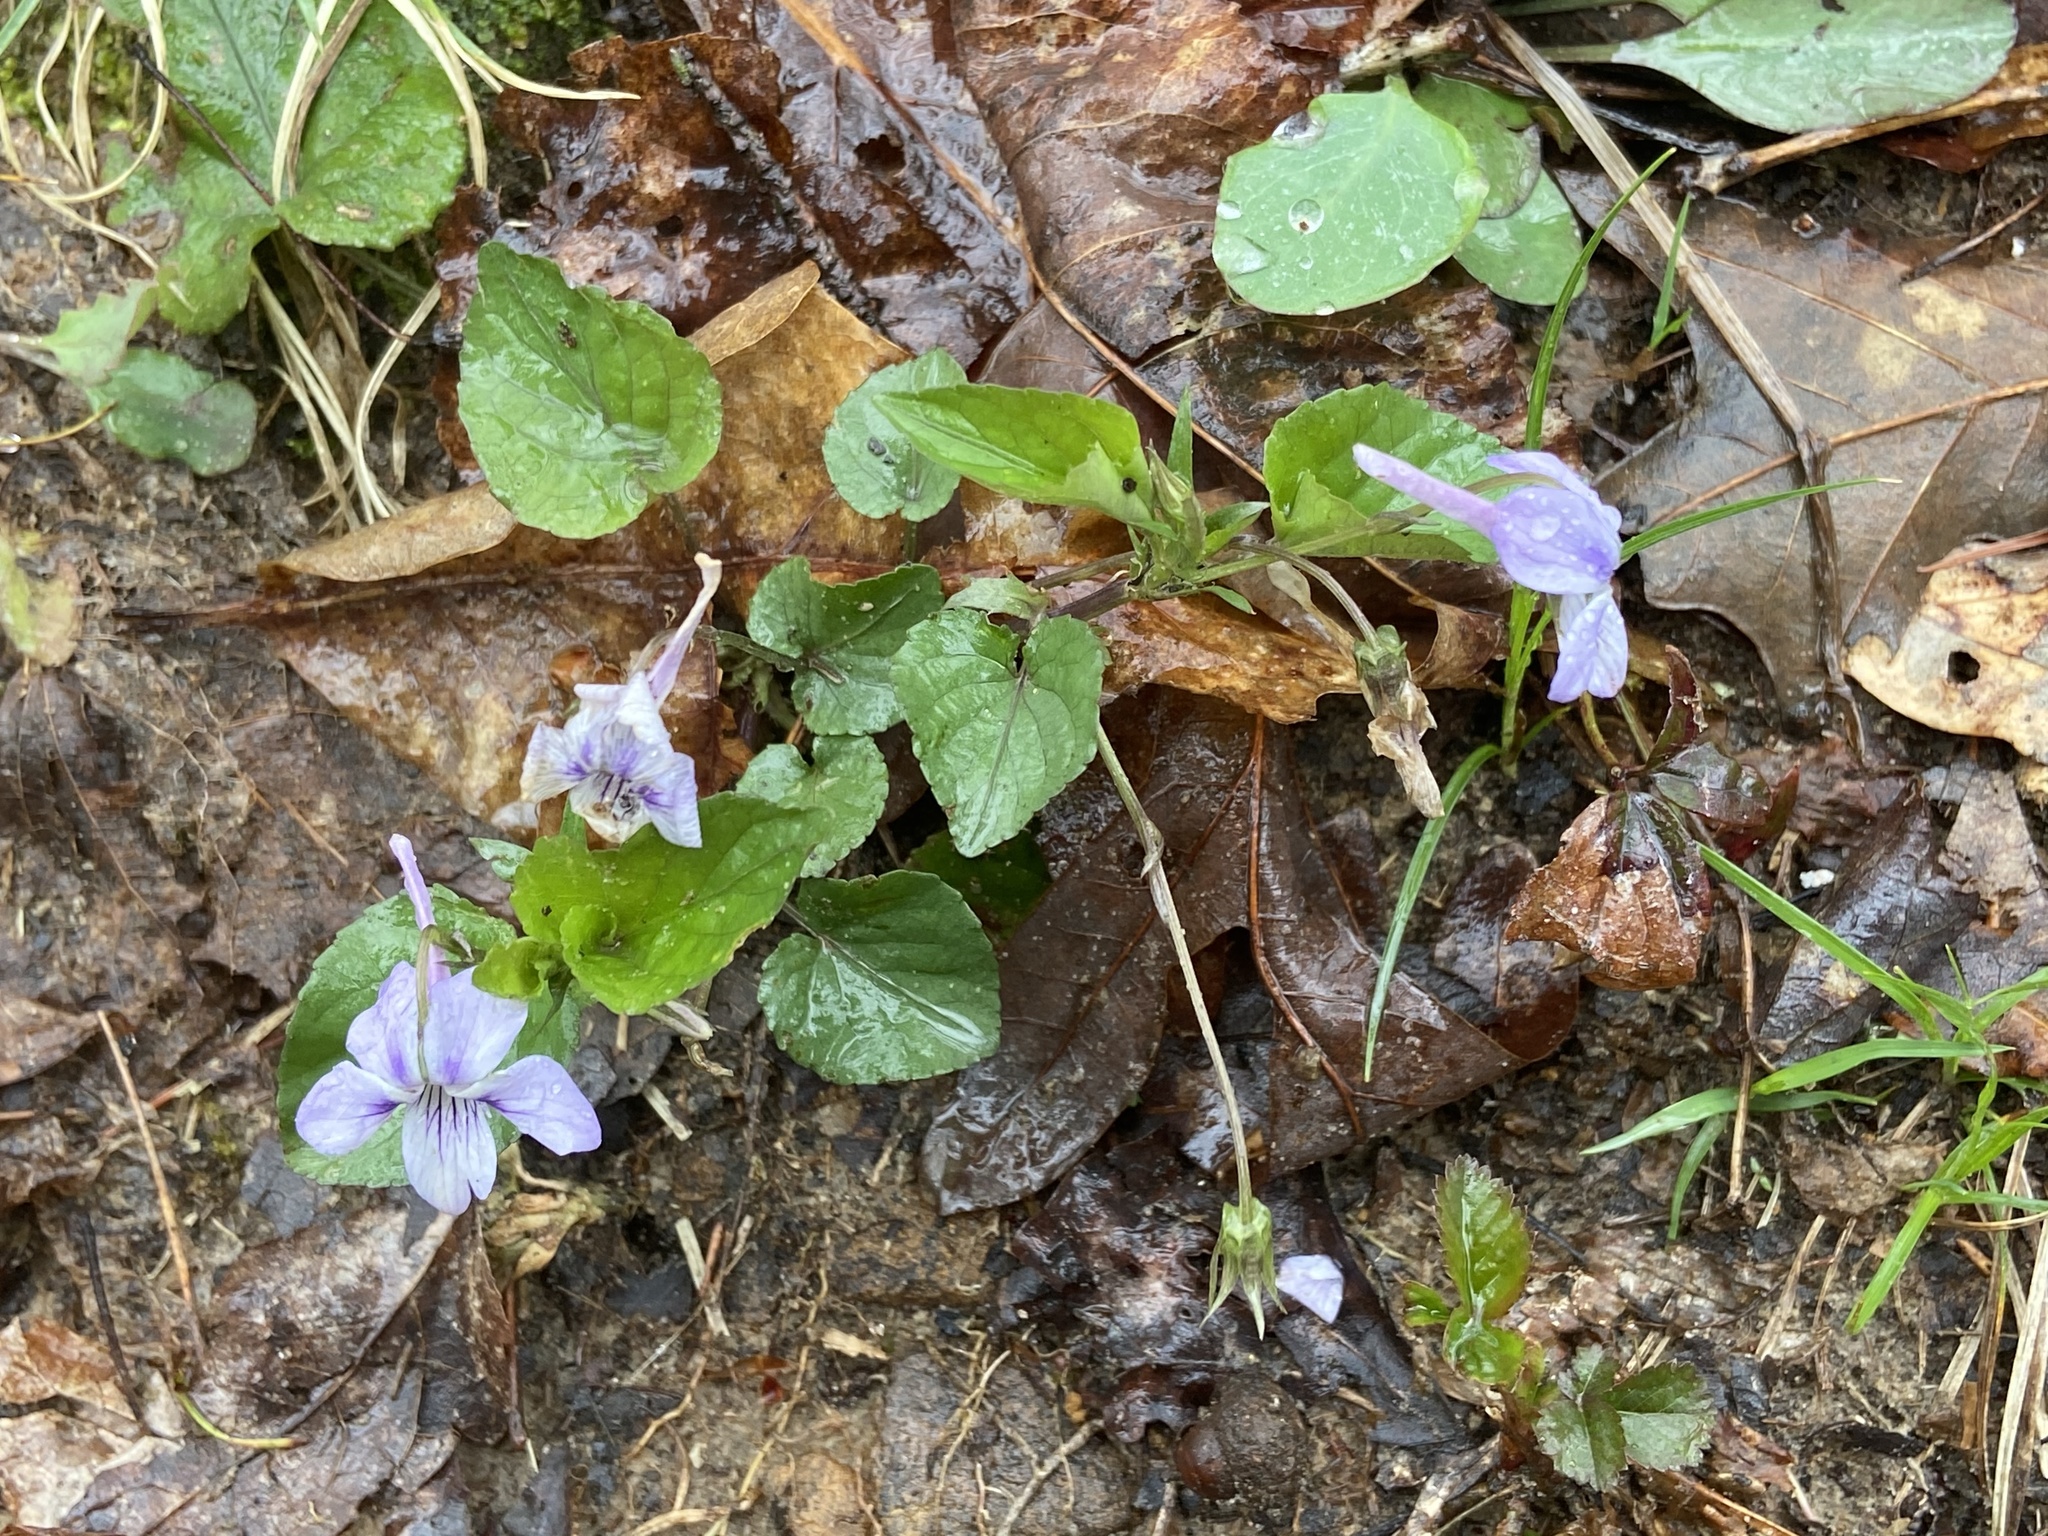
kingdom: Plantae
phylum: Tracheophyta
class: Magnoliopsida
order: Malpighiales
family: Violaceae
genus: Viola
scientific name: Viola rostrata
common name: Long-spur violet
